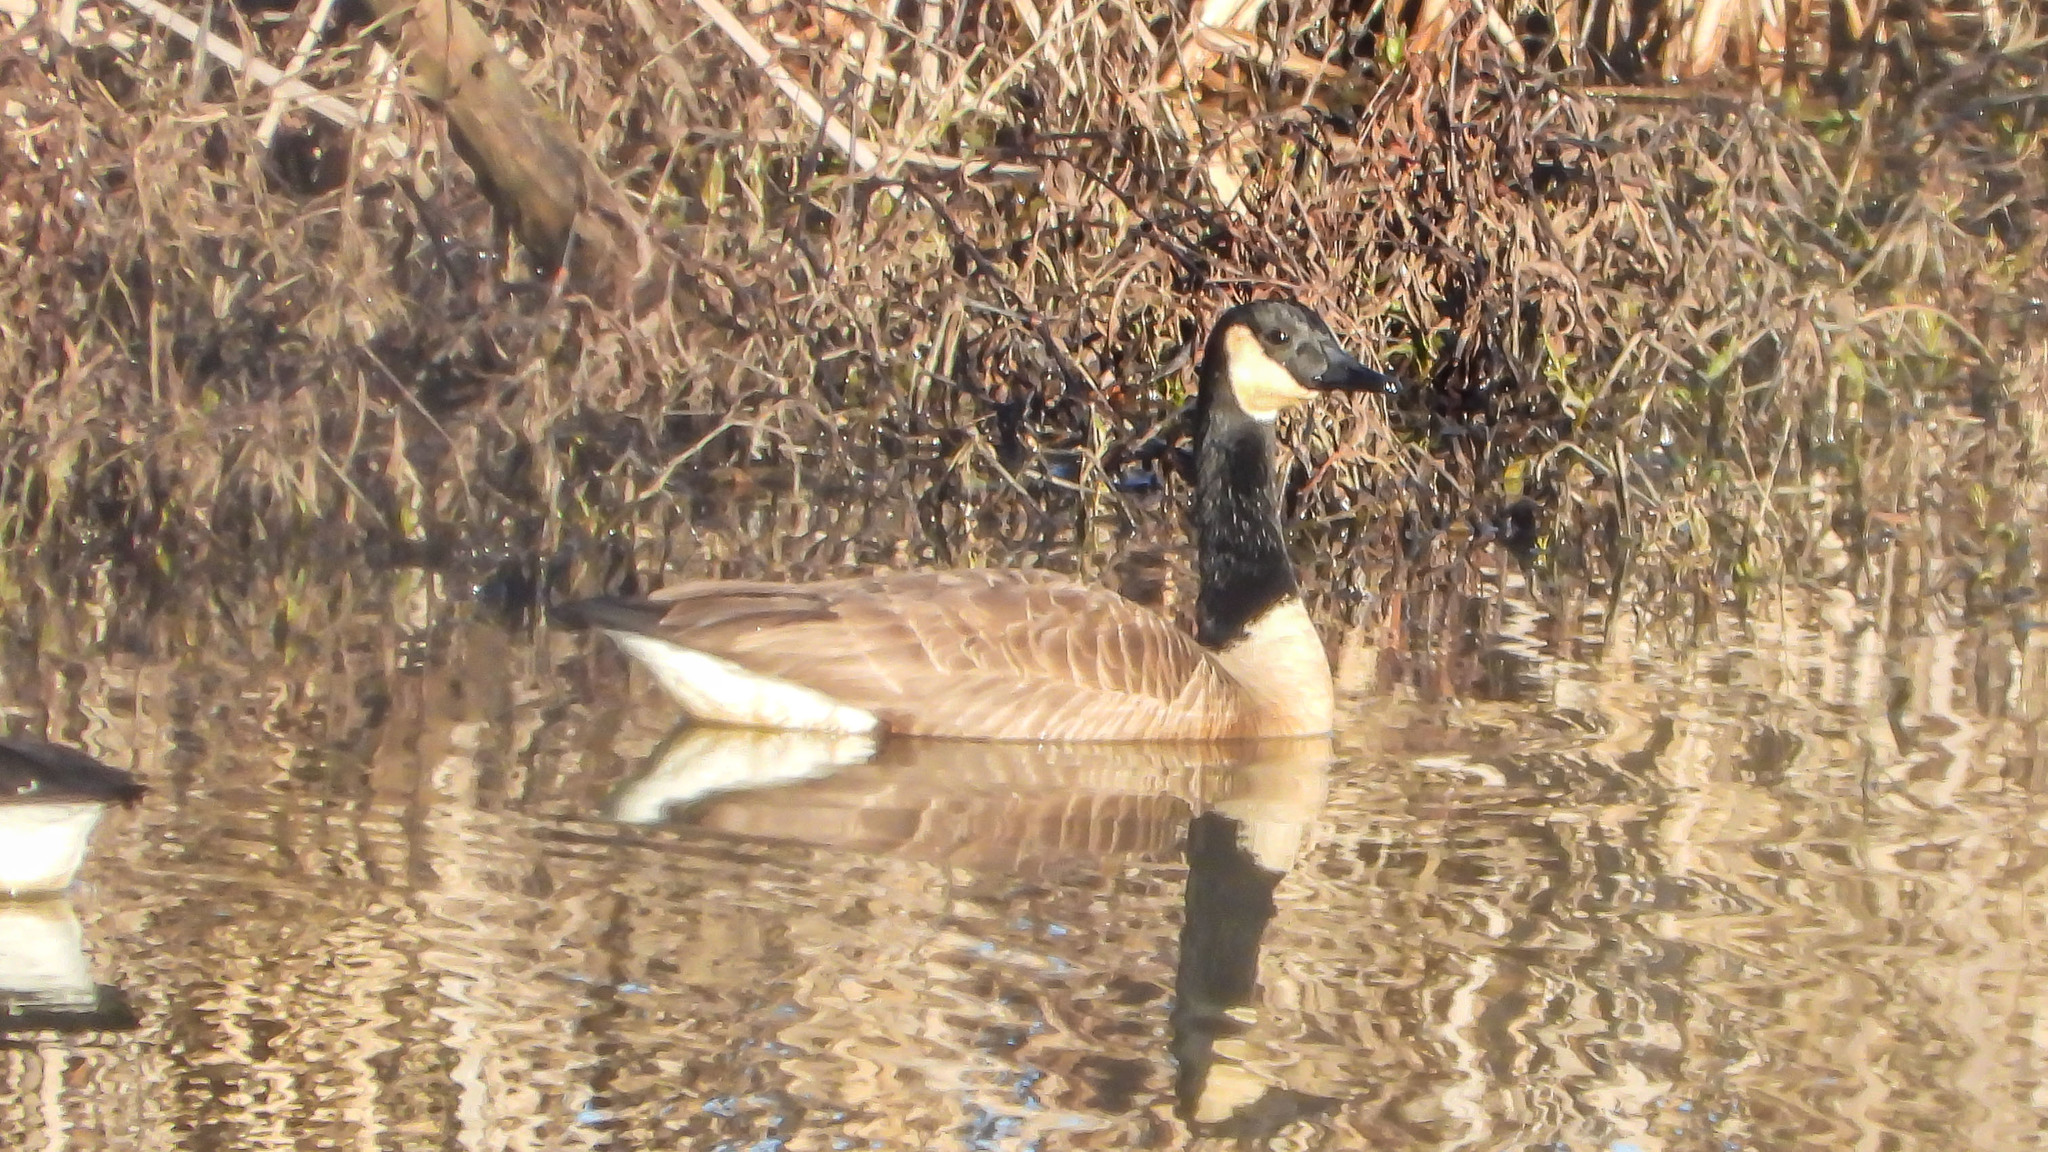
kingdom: Animalia
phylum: Chordata
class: Aves
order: Anseriformes
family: Anatidae
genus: Branta
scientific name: Branta canadensis
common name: Canada goose
